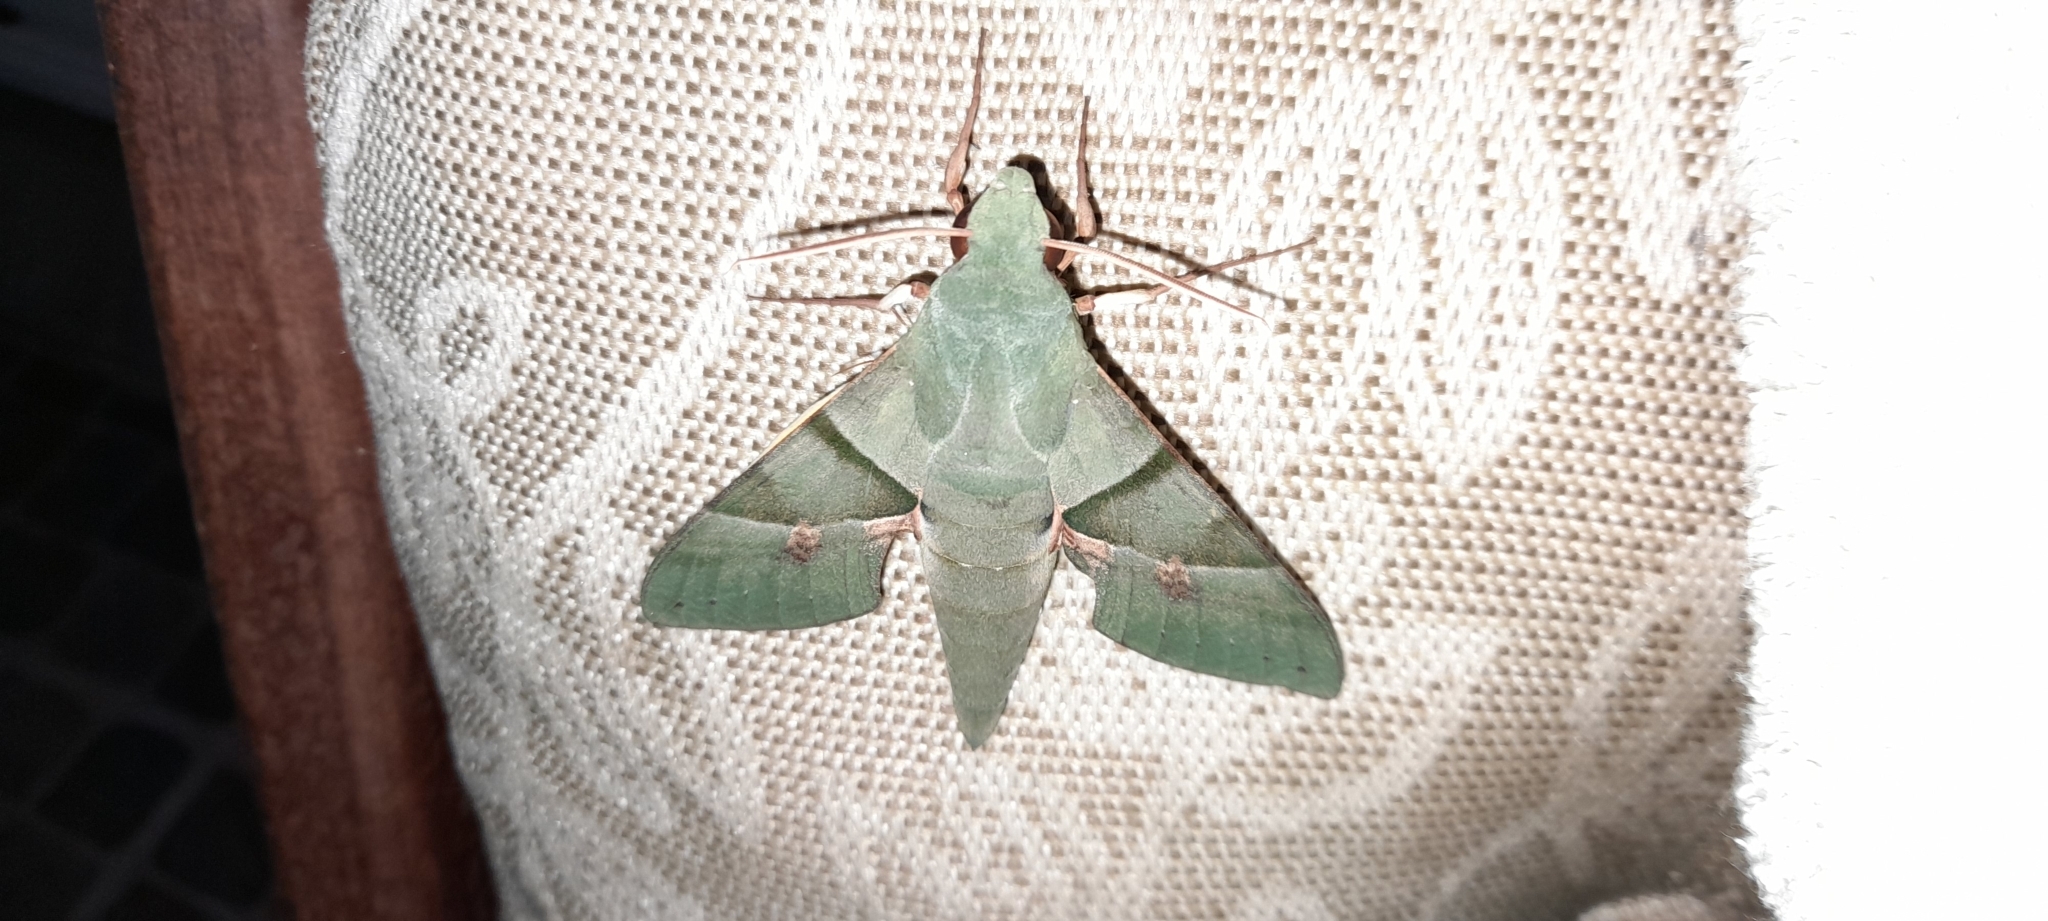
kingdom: Animalia
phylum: Arthropoda
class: Insecta
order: Lepidoptera
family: Sphingidae
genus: Eumorpha
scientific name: Eumorpha labruscae
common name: Gaudy sphinx
